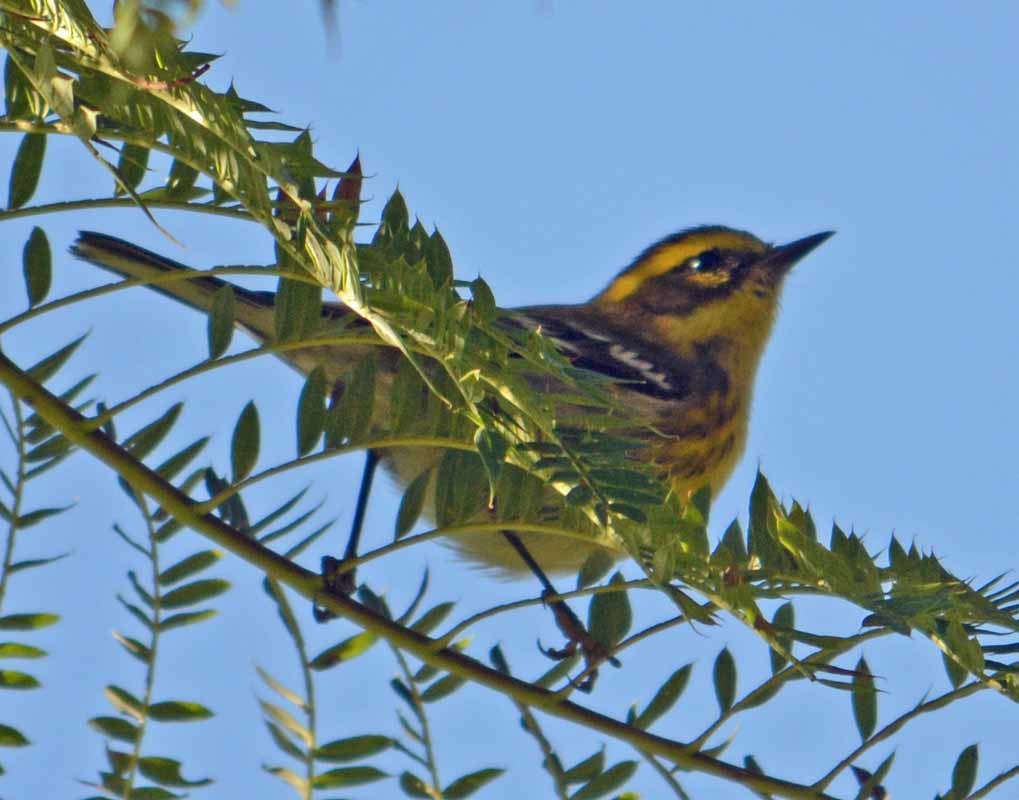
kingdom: Animalia
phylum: Chordata
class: Aves
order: Passeriformes
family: Parulidae
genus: Setophaga
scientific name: Setophaga townsendi
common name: Townsend's warbler
